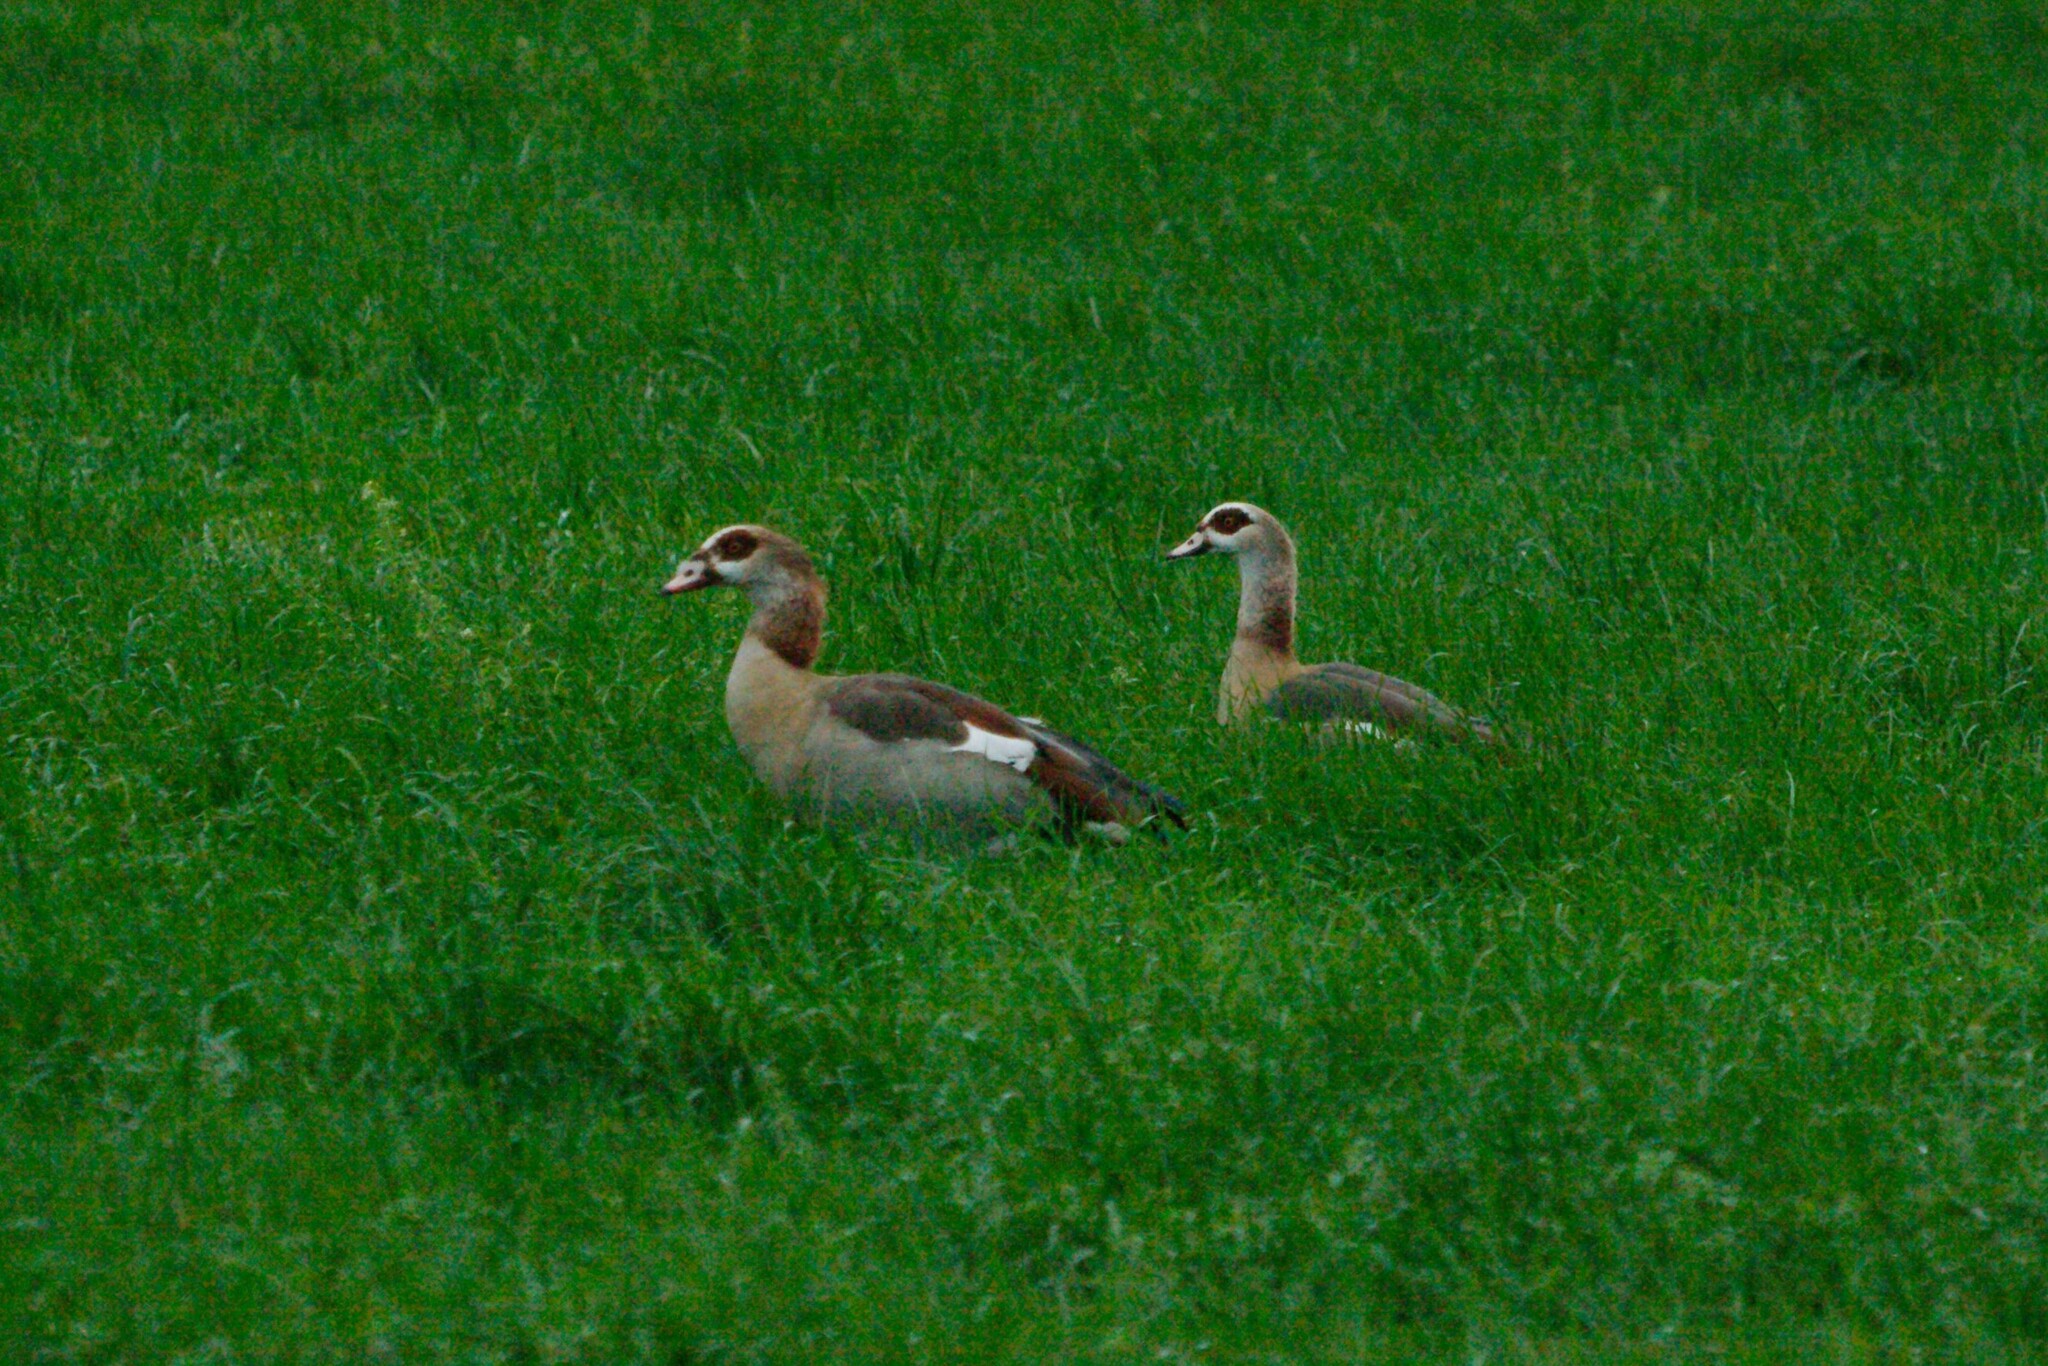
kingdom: Animalia
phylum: Chordata
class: Aves
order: Anseriformes
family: Anatidae
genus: Alopochen
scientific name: Alopochen aegyptiaca
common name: Egyptian goose
